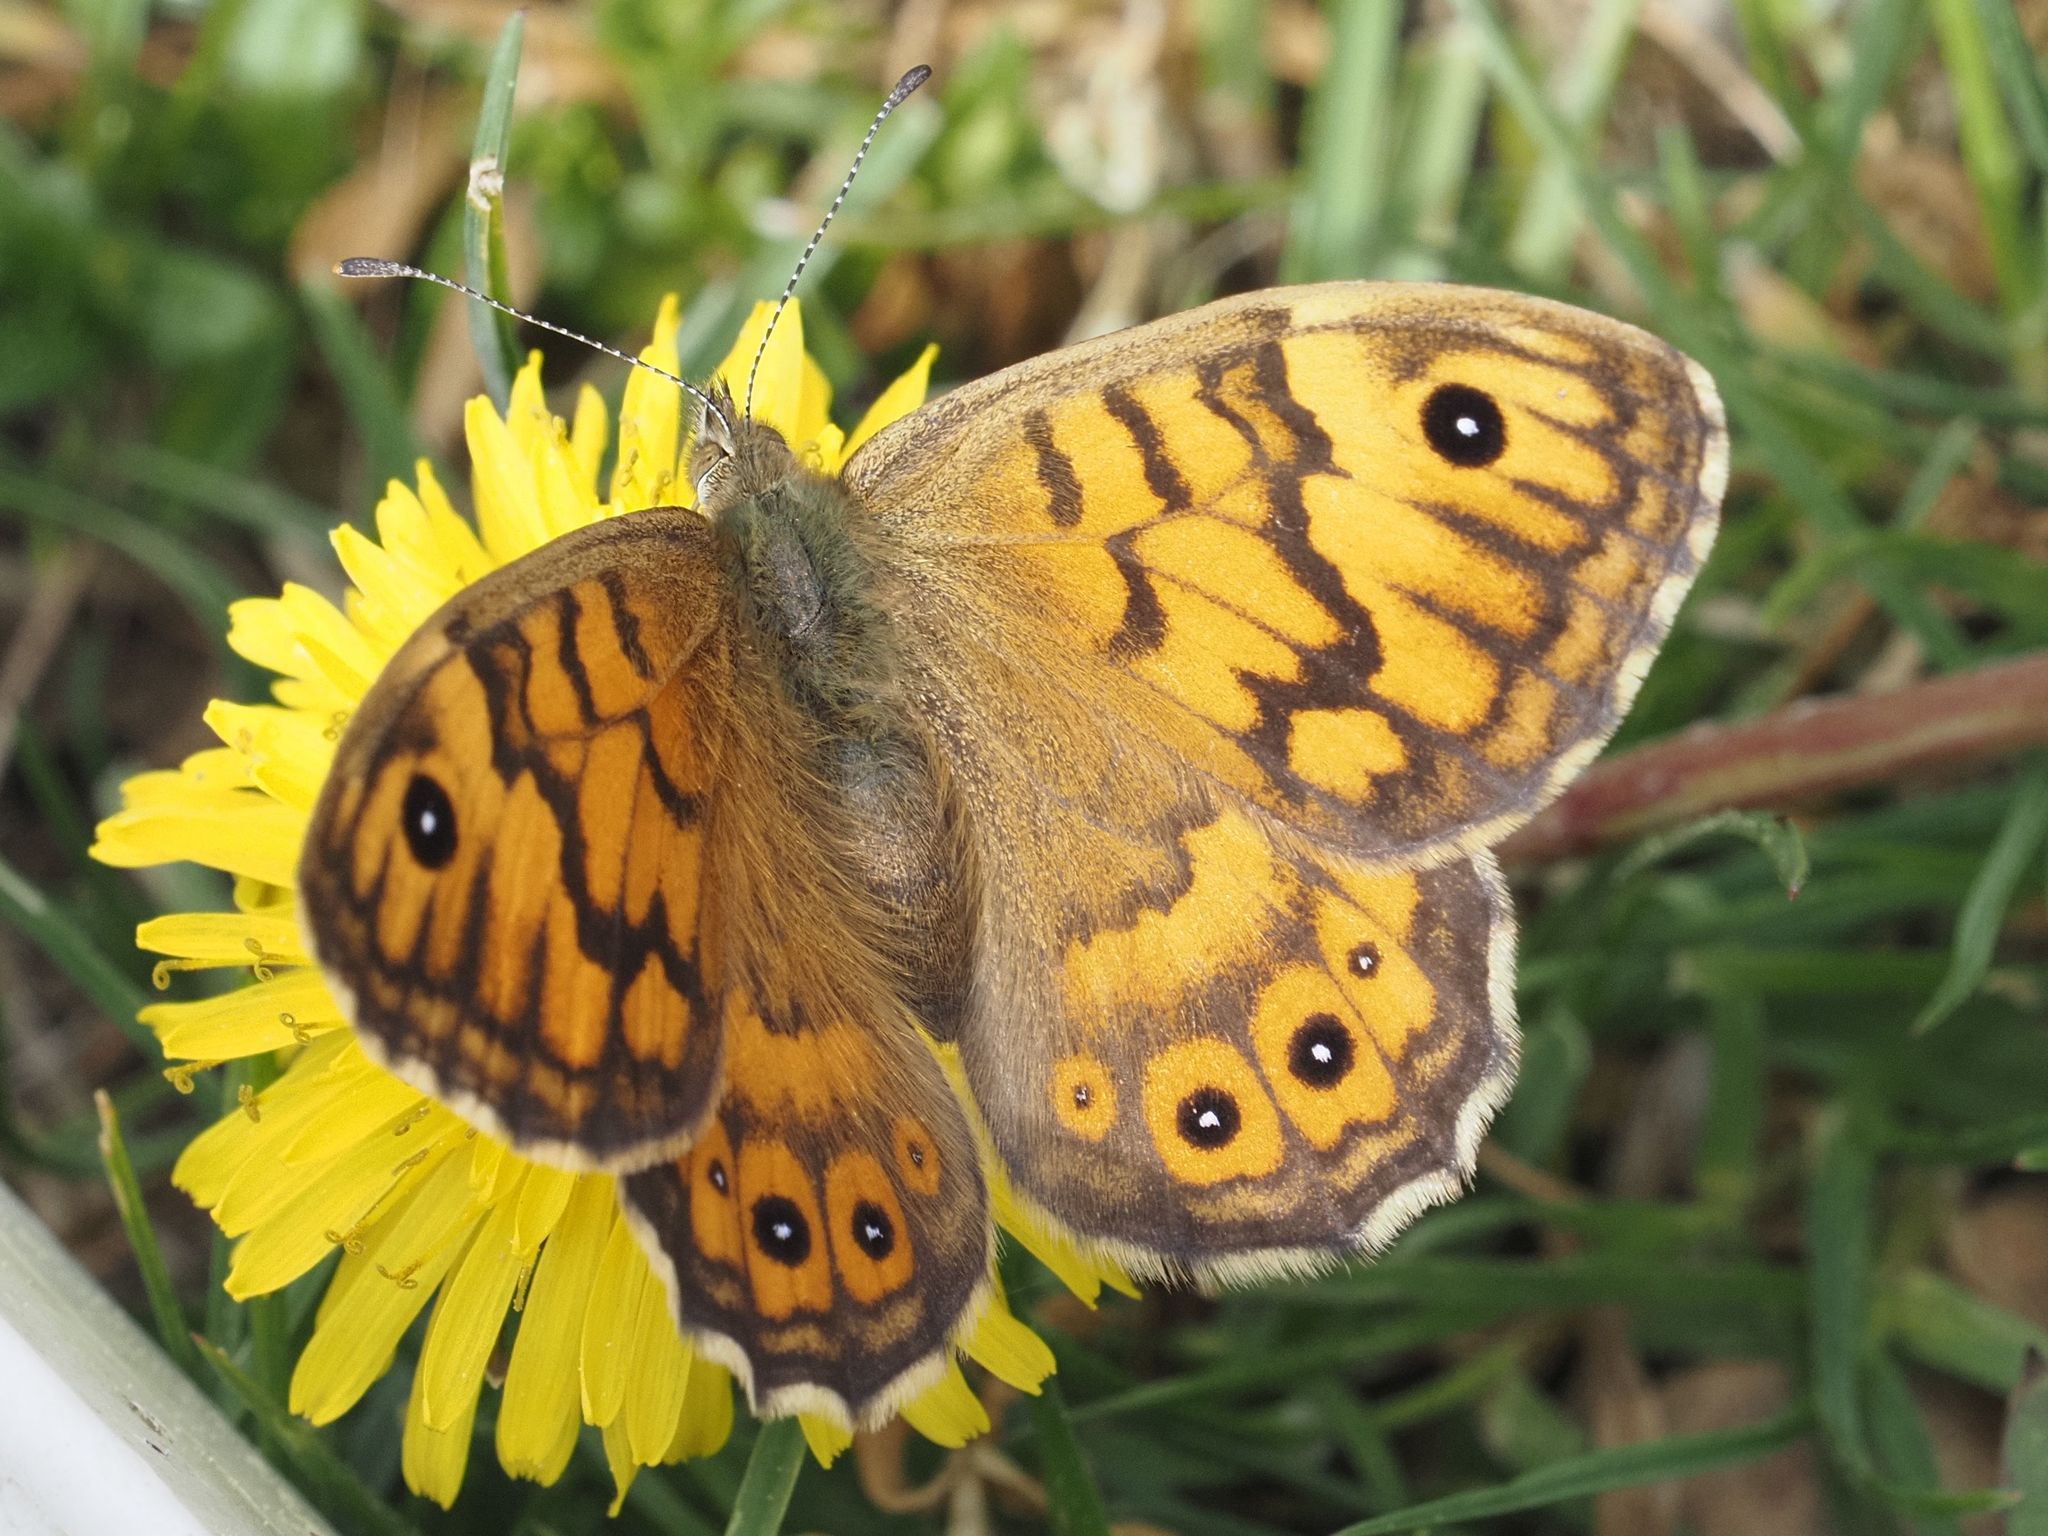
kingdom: Animalia
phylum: Arthropoda
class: Insecta
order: Lepidoptera
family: Nymphalidae
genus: Pararge
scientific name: Pararge Lasiommata megera
